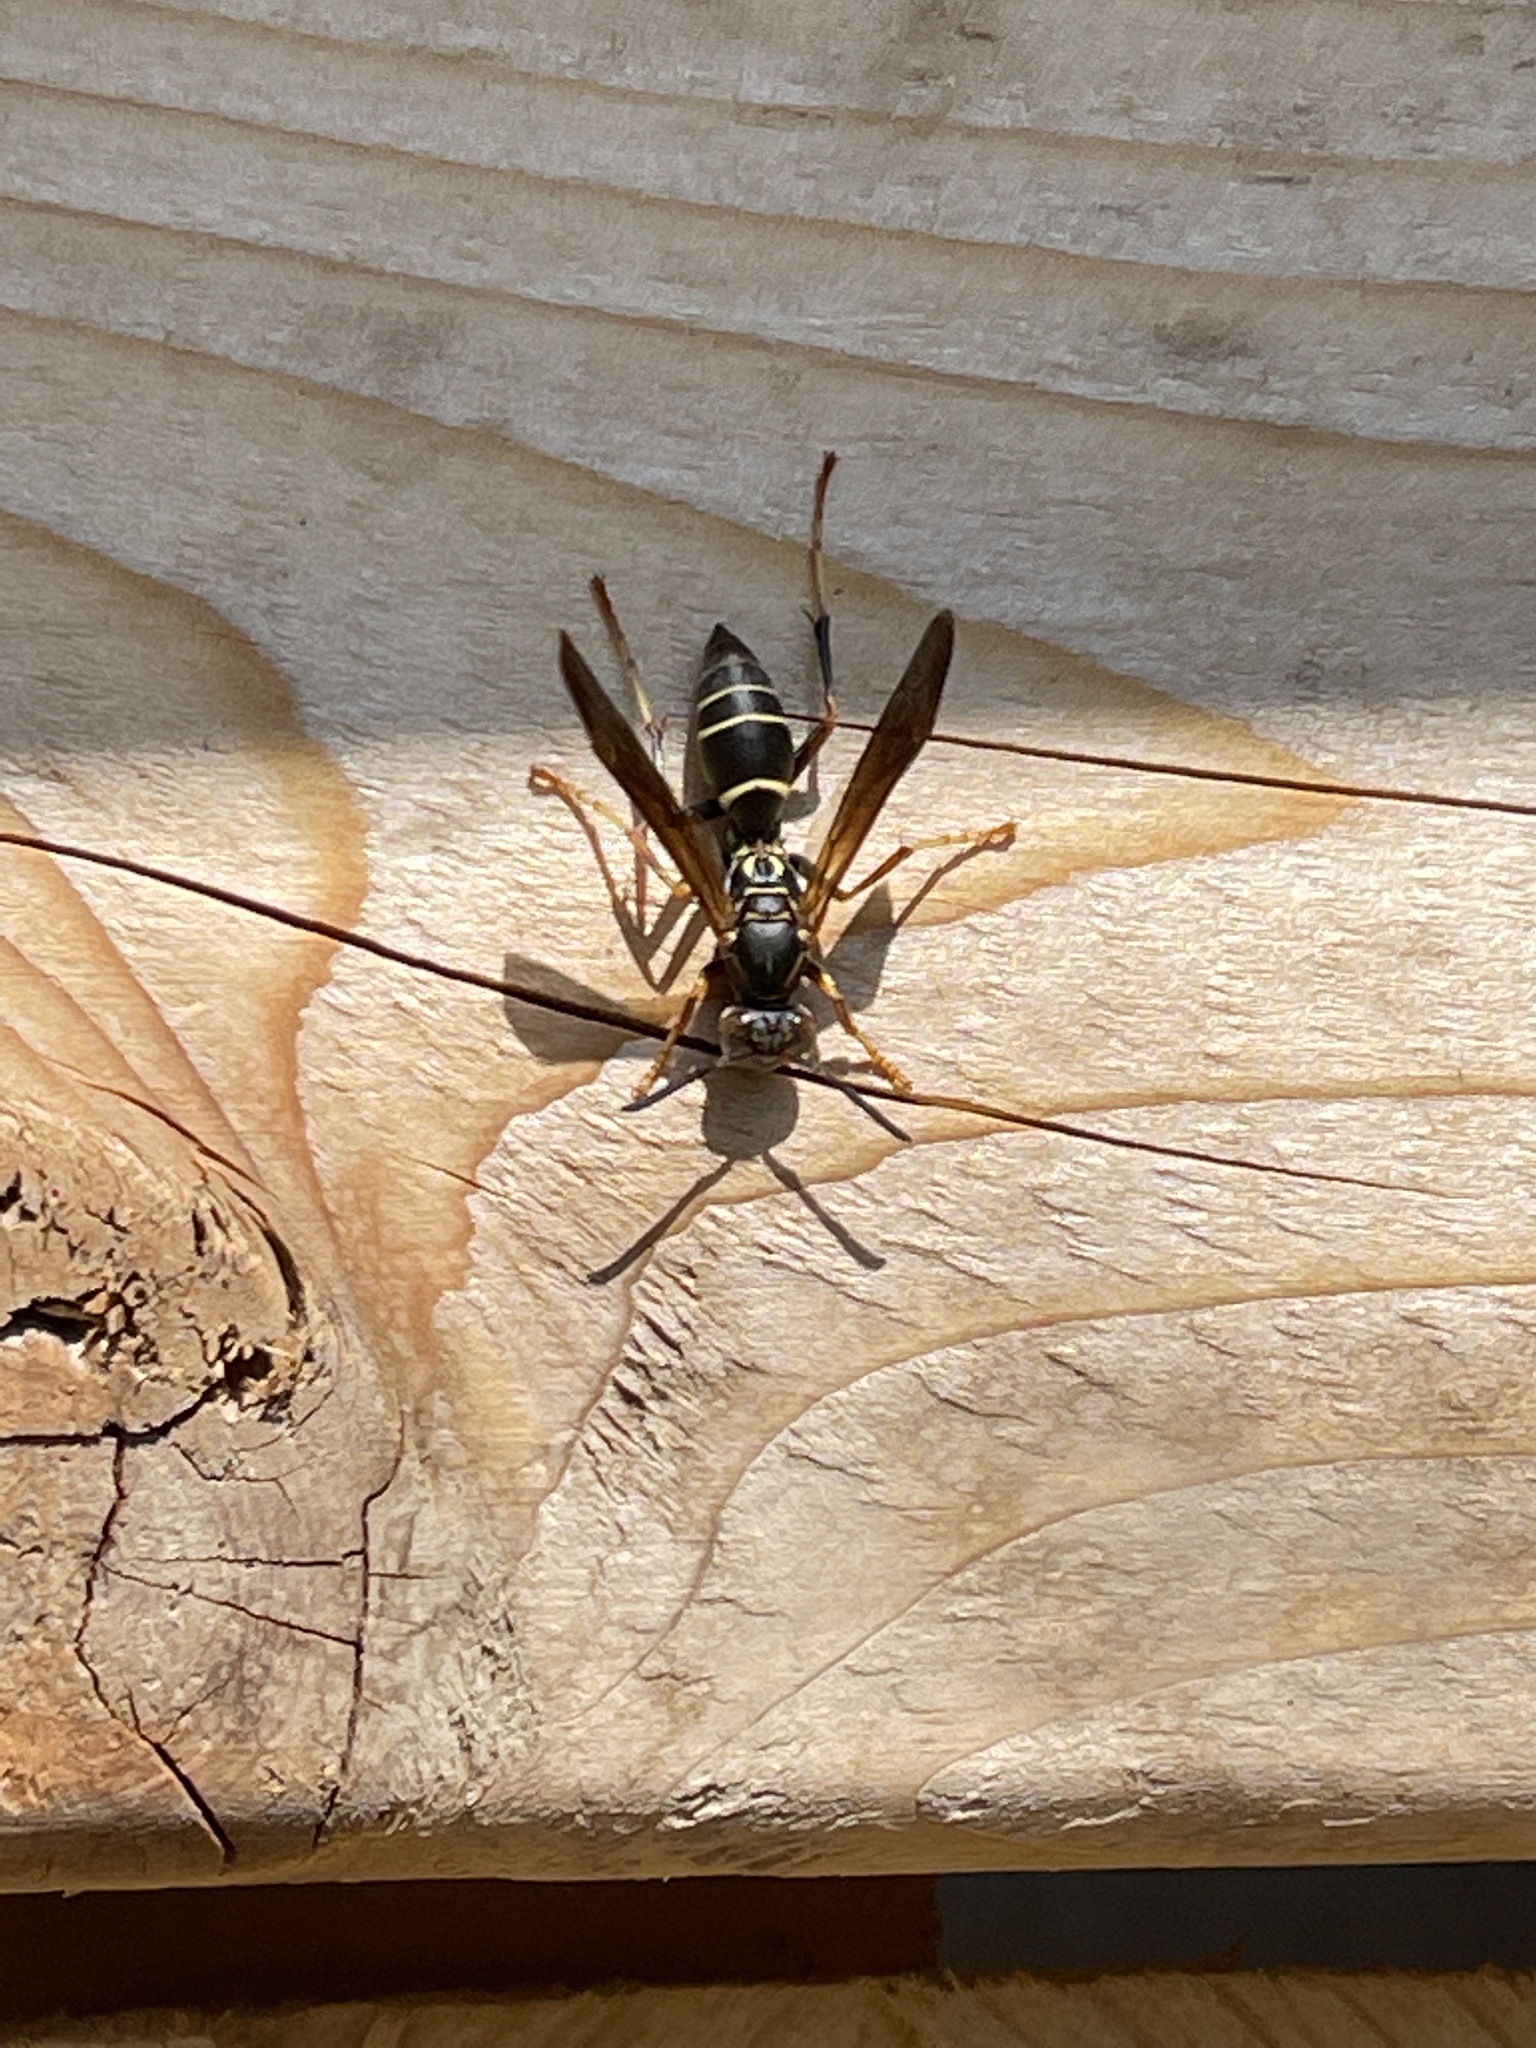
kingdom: Animalia
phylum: Arthropoda
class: Insecta
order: Hymenoptera
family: Eumenidae
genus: Polistes
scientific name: Polistes fuscatus
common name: Dark paper wasp
